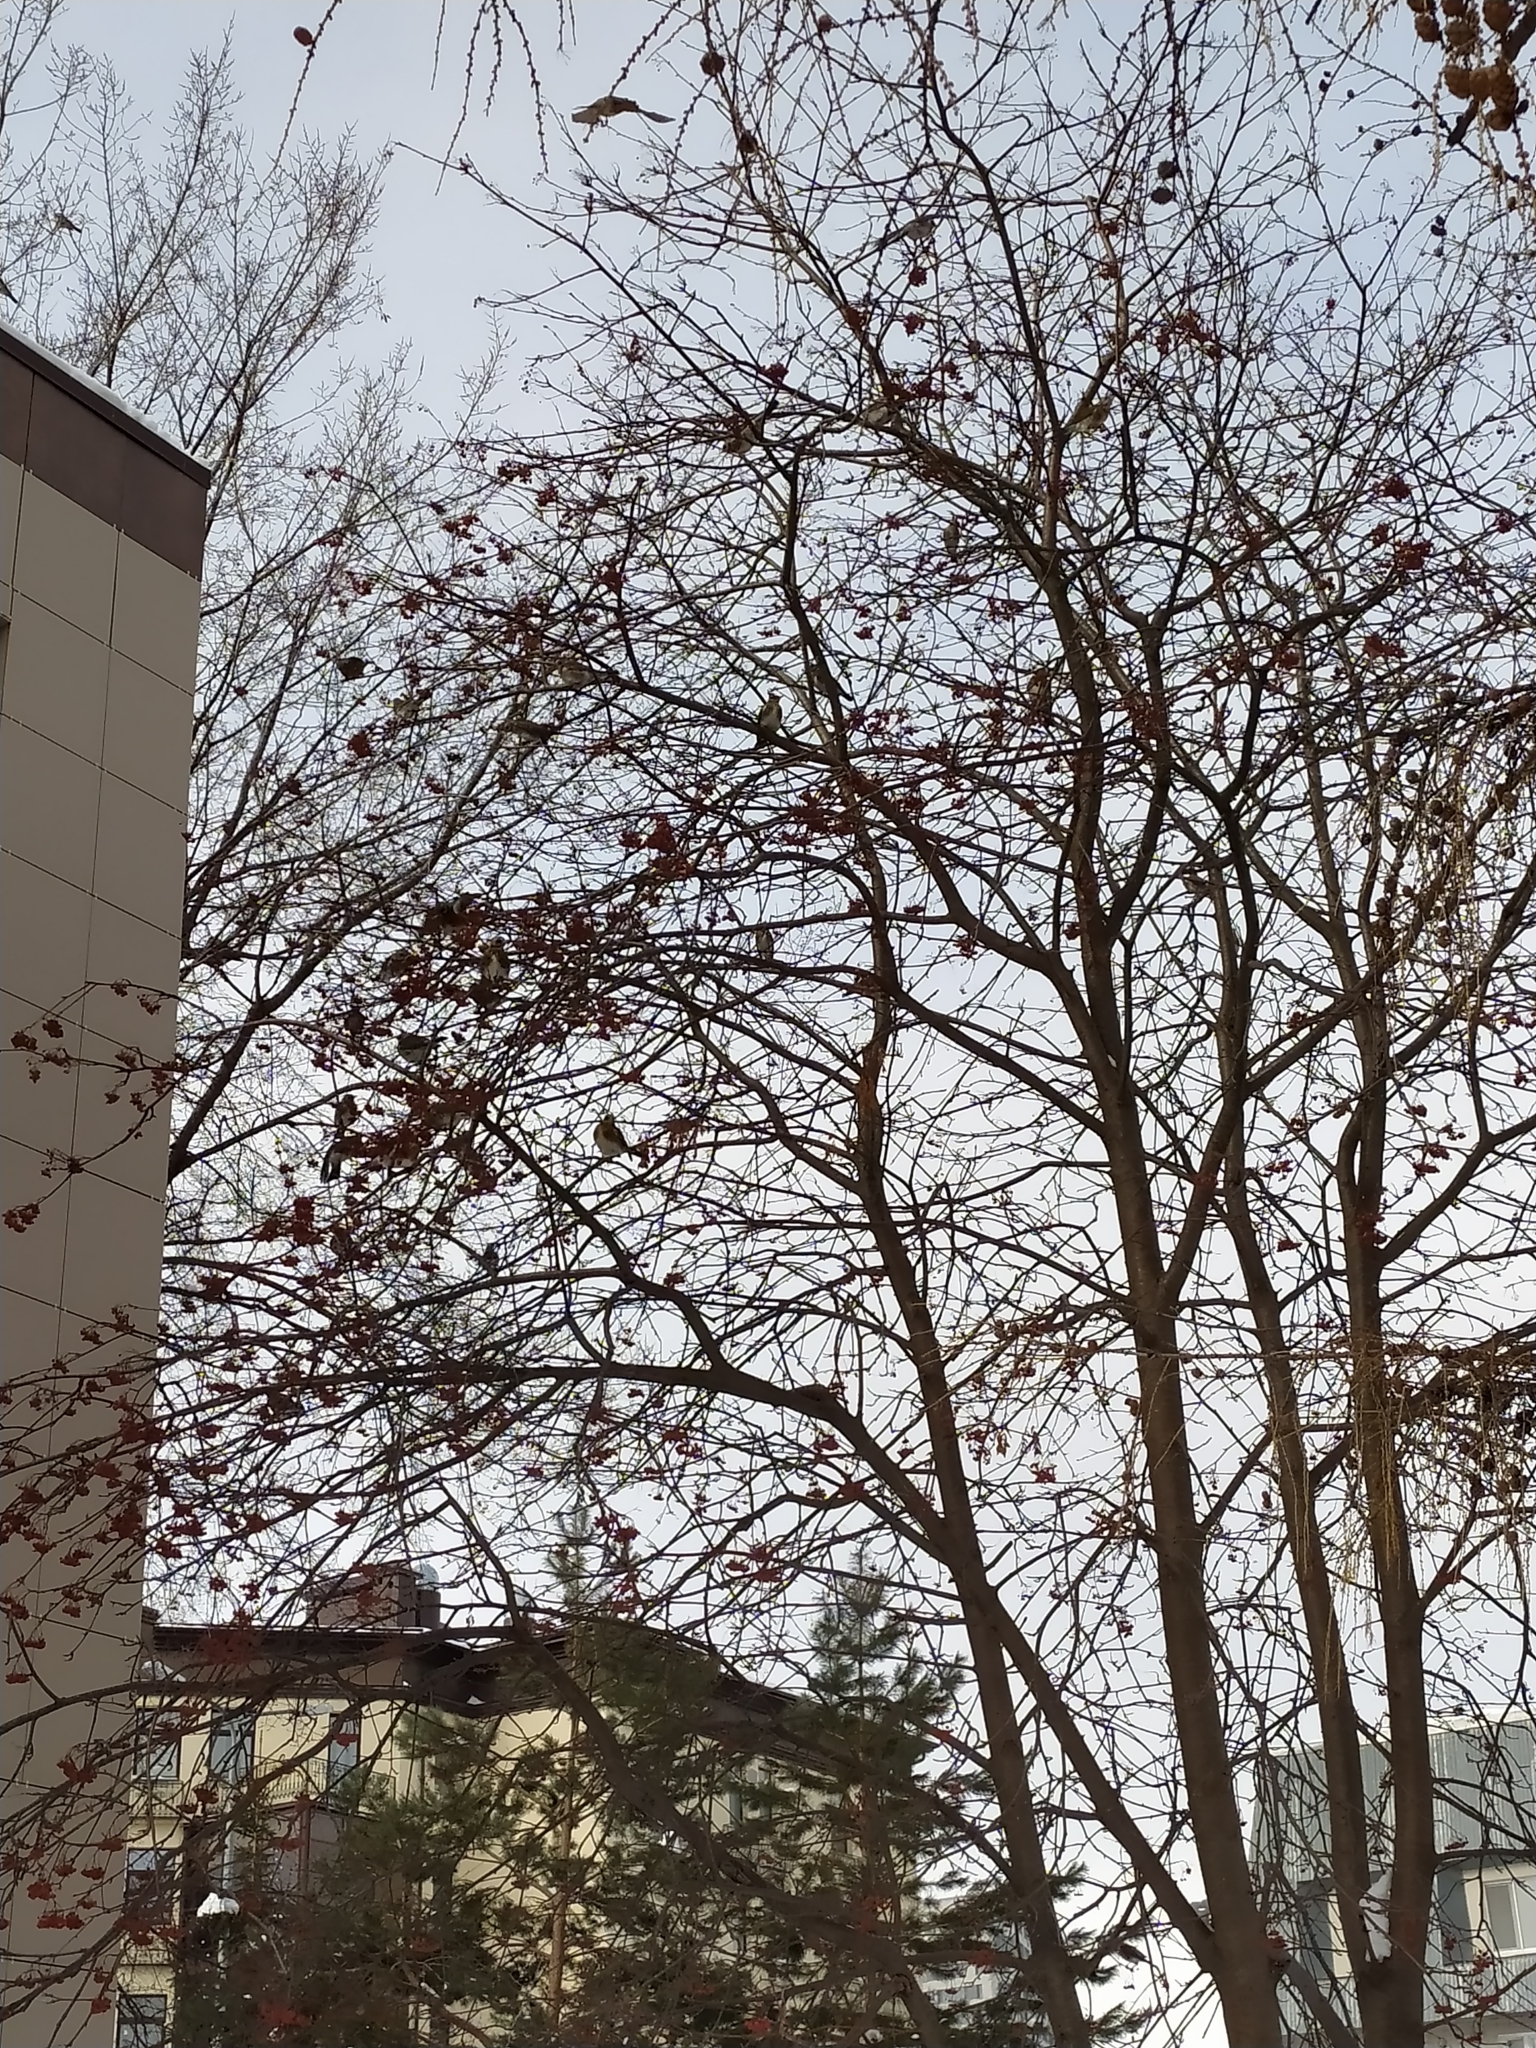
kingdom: Animalia
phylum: Chordata
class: Aves
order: Passeriformes
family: Turdidae
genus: Turdus
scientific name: Turdus pilaris
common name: Fieldfare
